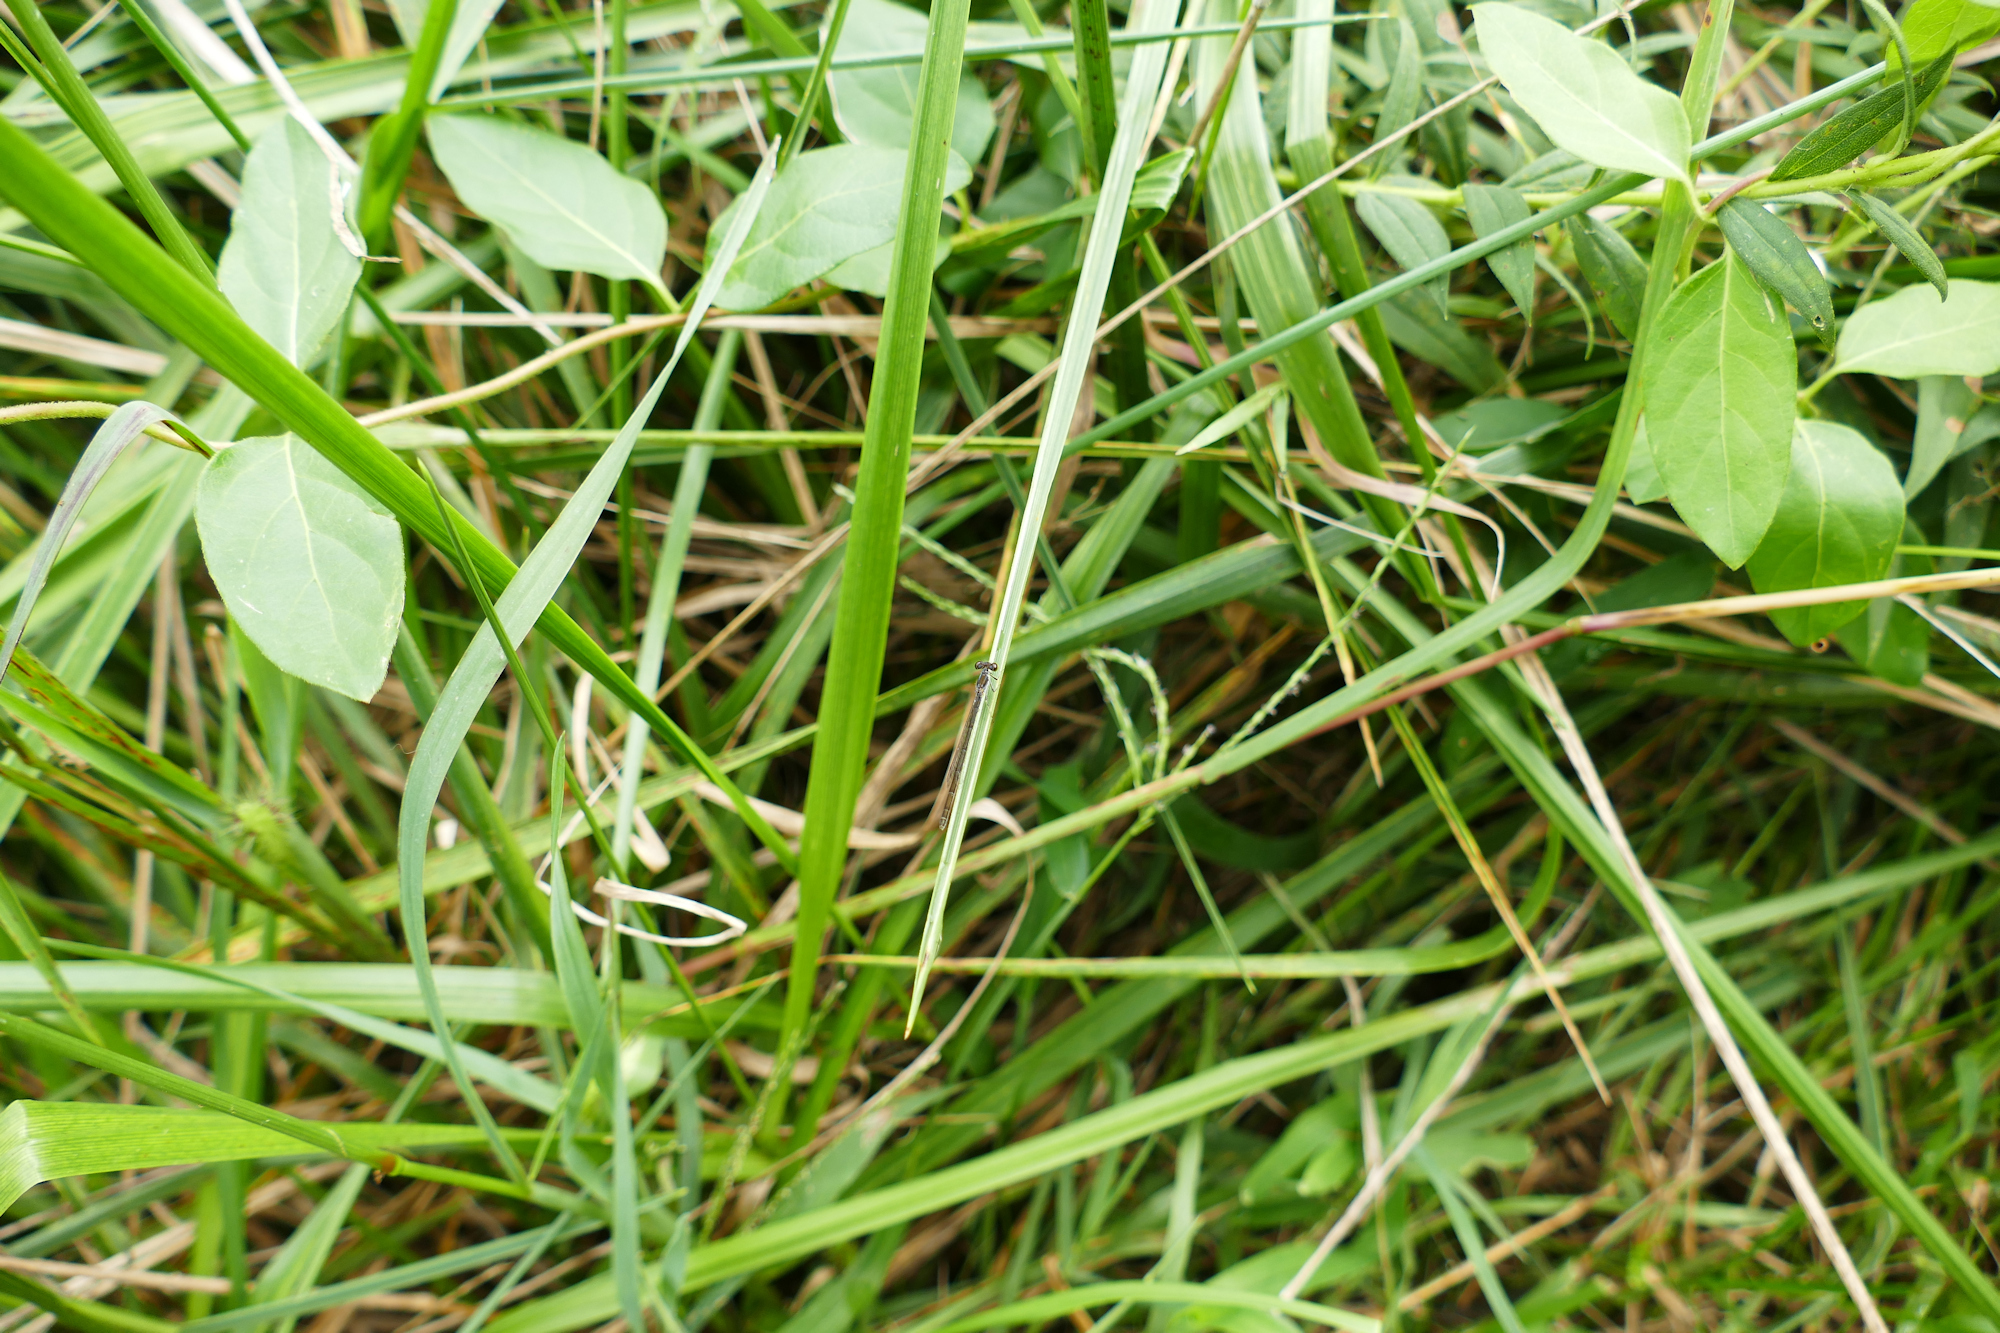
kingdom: Animalia
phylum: Arthropoda
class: Insecta
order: Odonata
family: Coenagrionidae
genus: Ischnura
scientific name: Ischnura posita
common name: Fragile forktail
